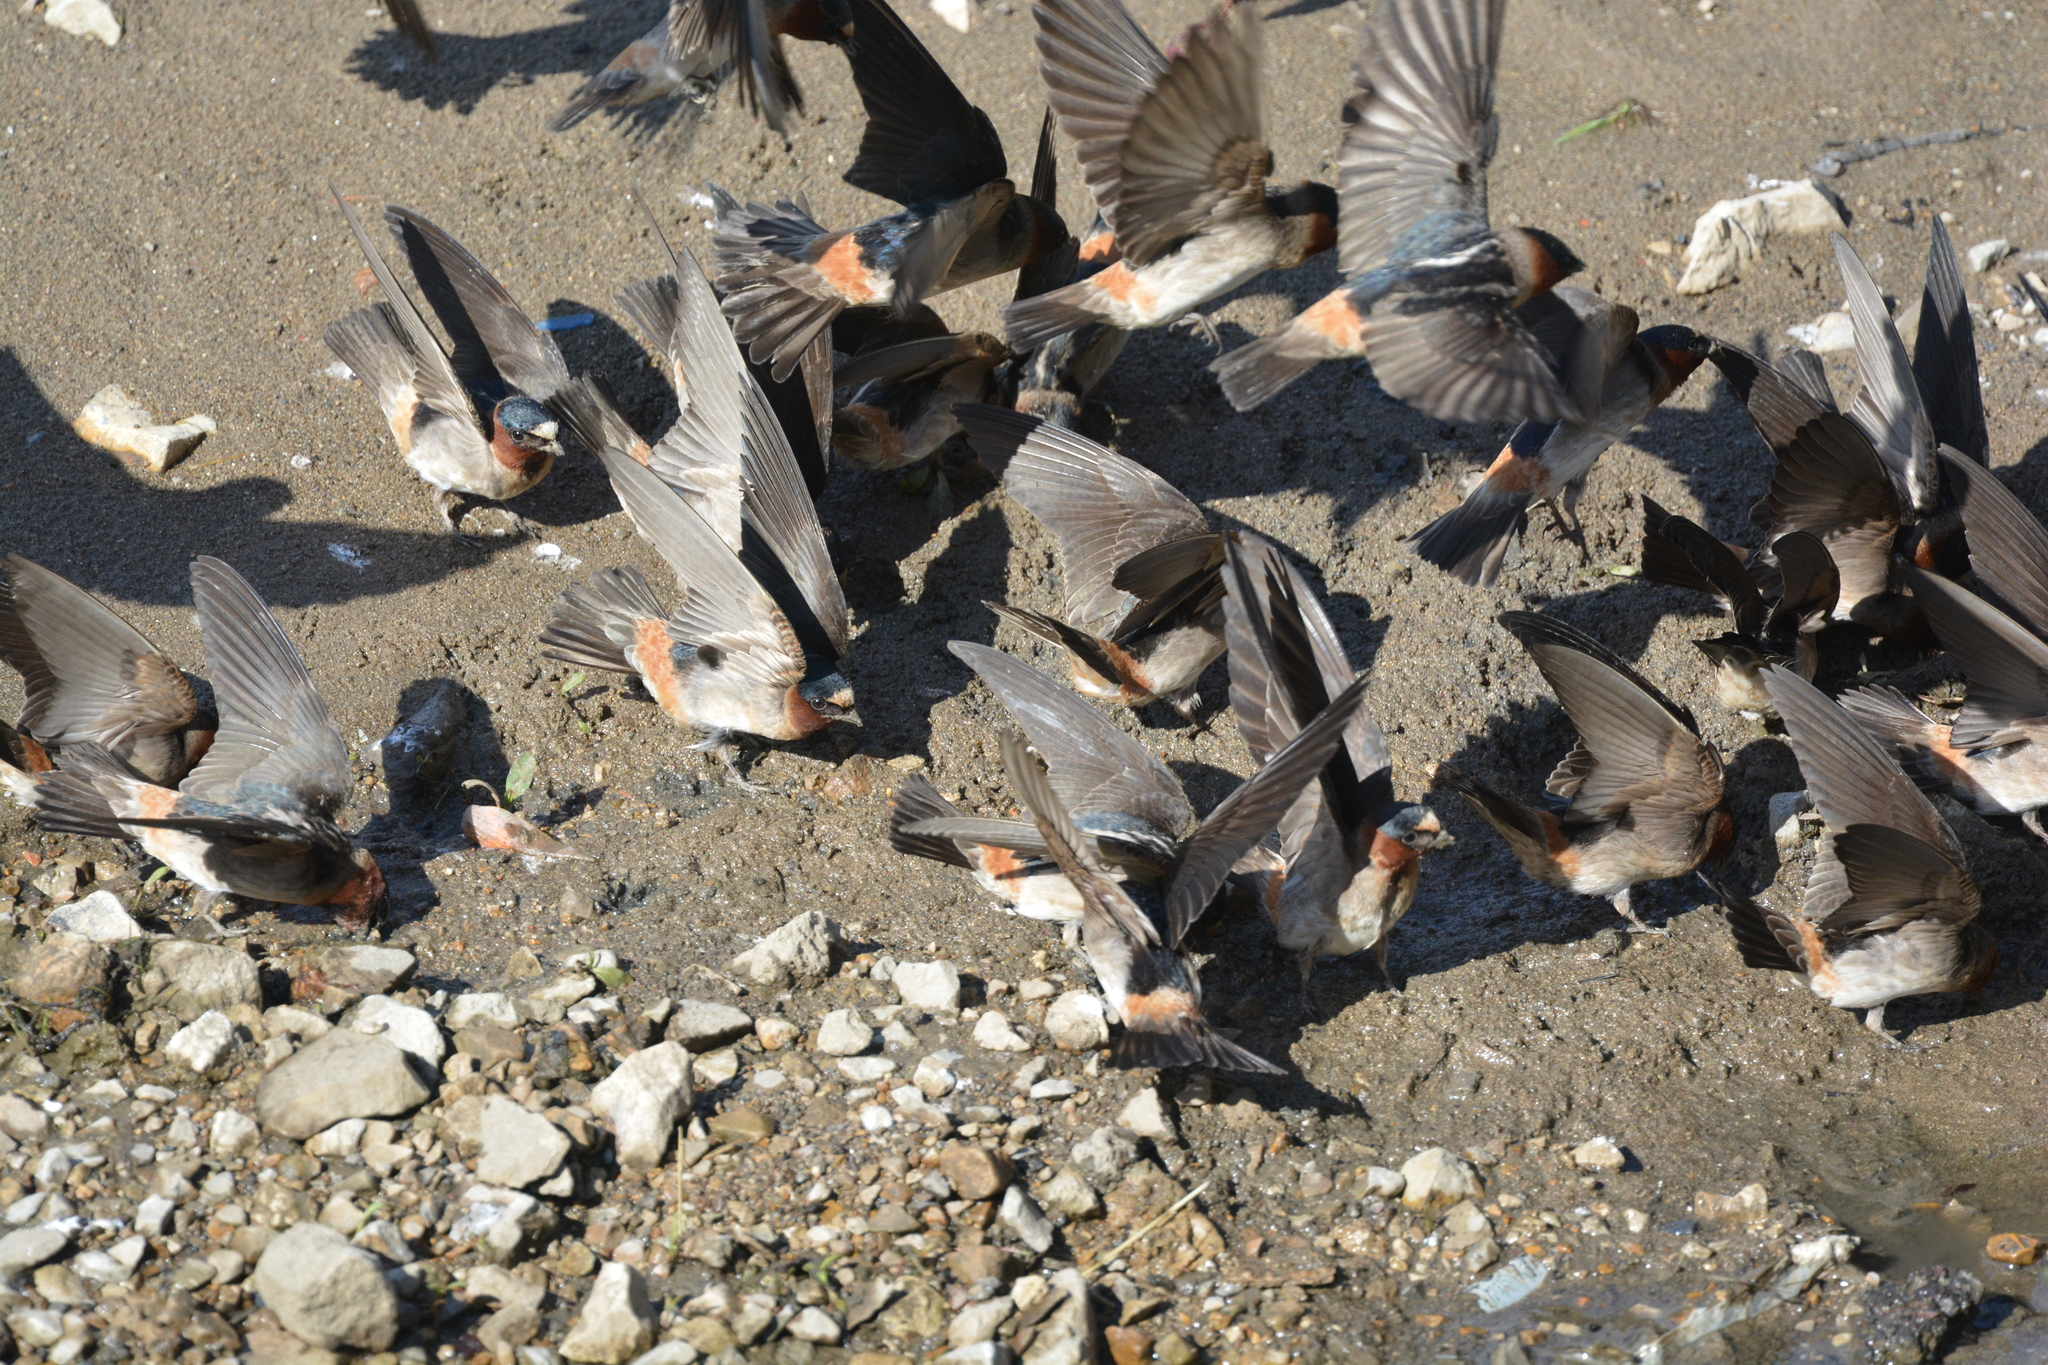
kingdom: Animalia
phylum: Chordata
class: Aves
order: Passeriformes
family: Hirundinidae
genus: Petrochelidon
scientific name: Petrochelidon pyrrhonota
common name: American cliff swallow
